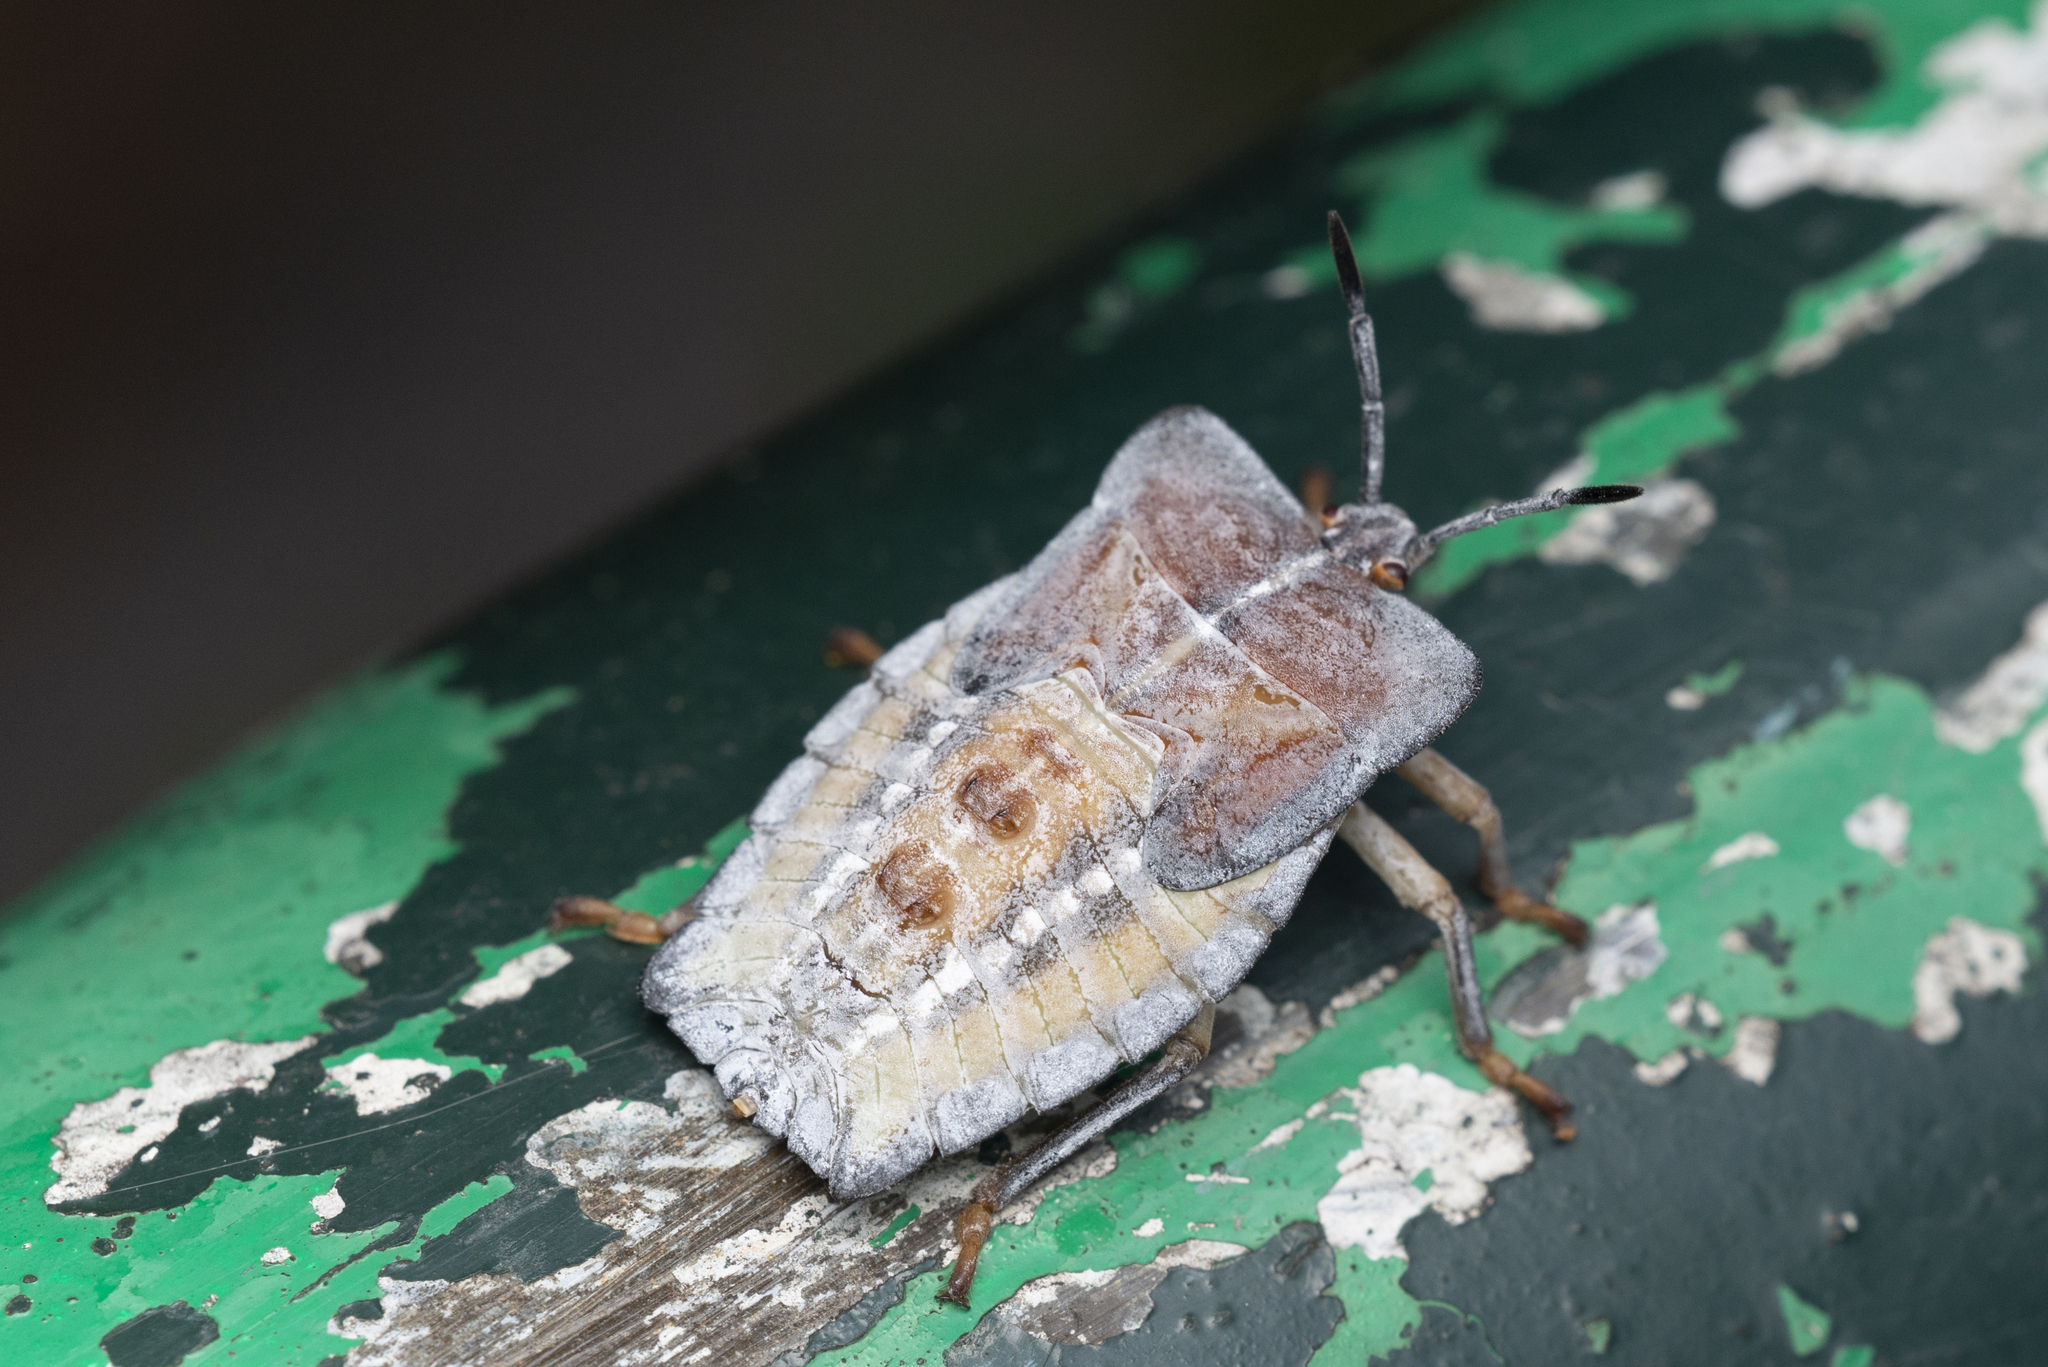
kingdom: Animalia
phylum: Arthropoda
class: Insecta
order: Hemiptera
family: Tessaratomidae
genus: Tessaratoma
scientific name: Tessaratoma papillosa
